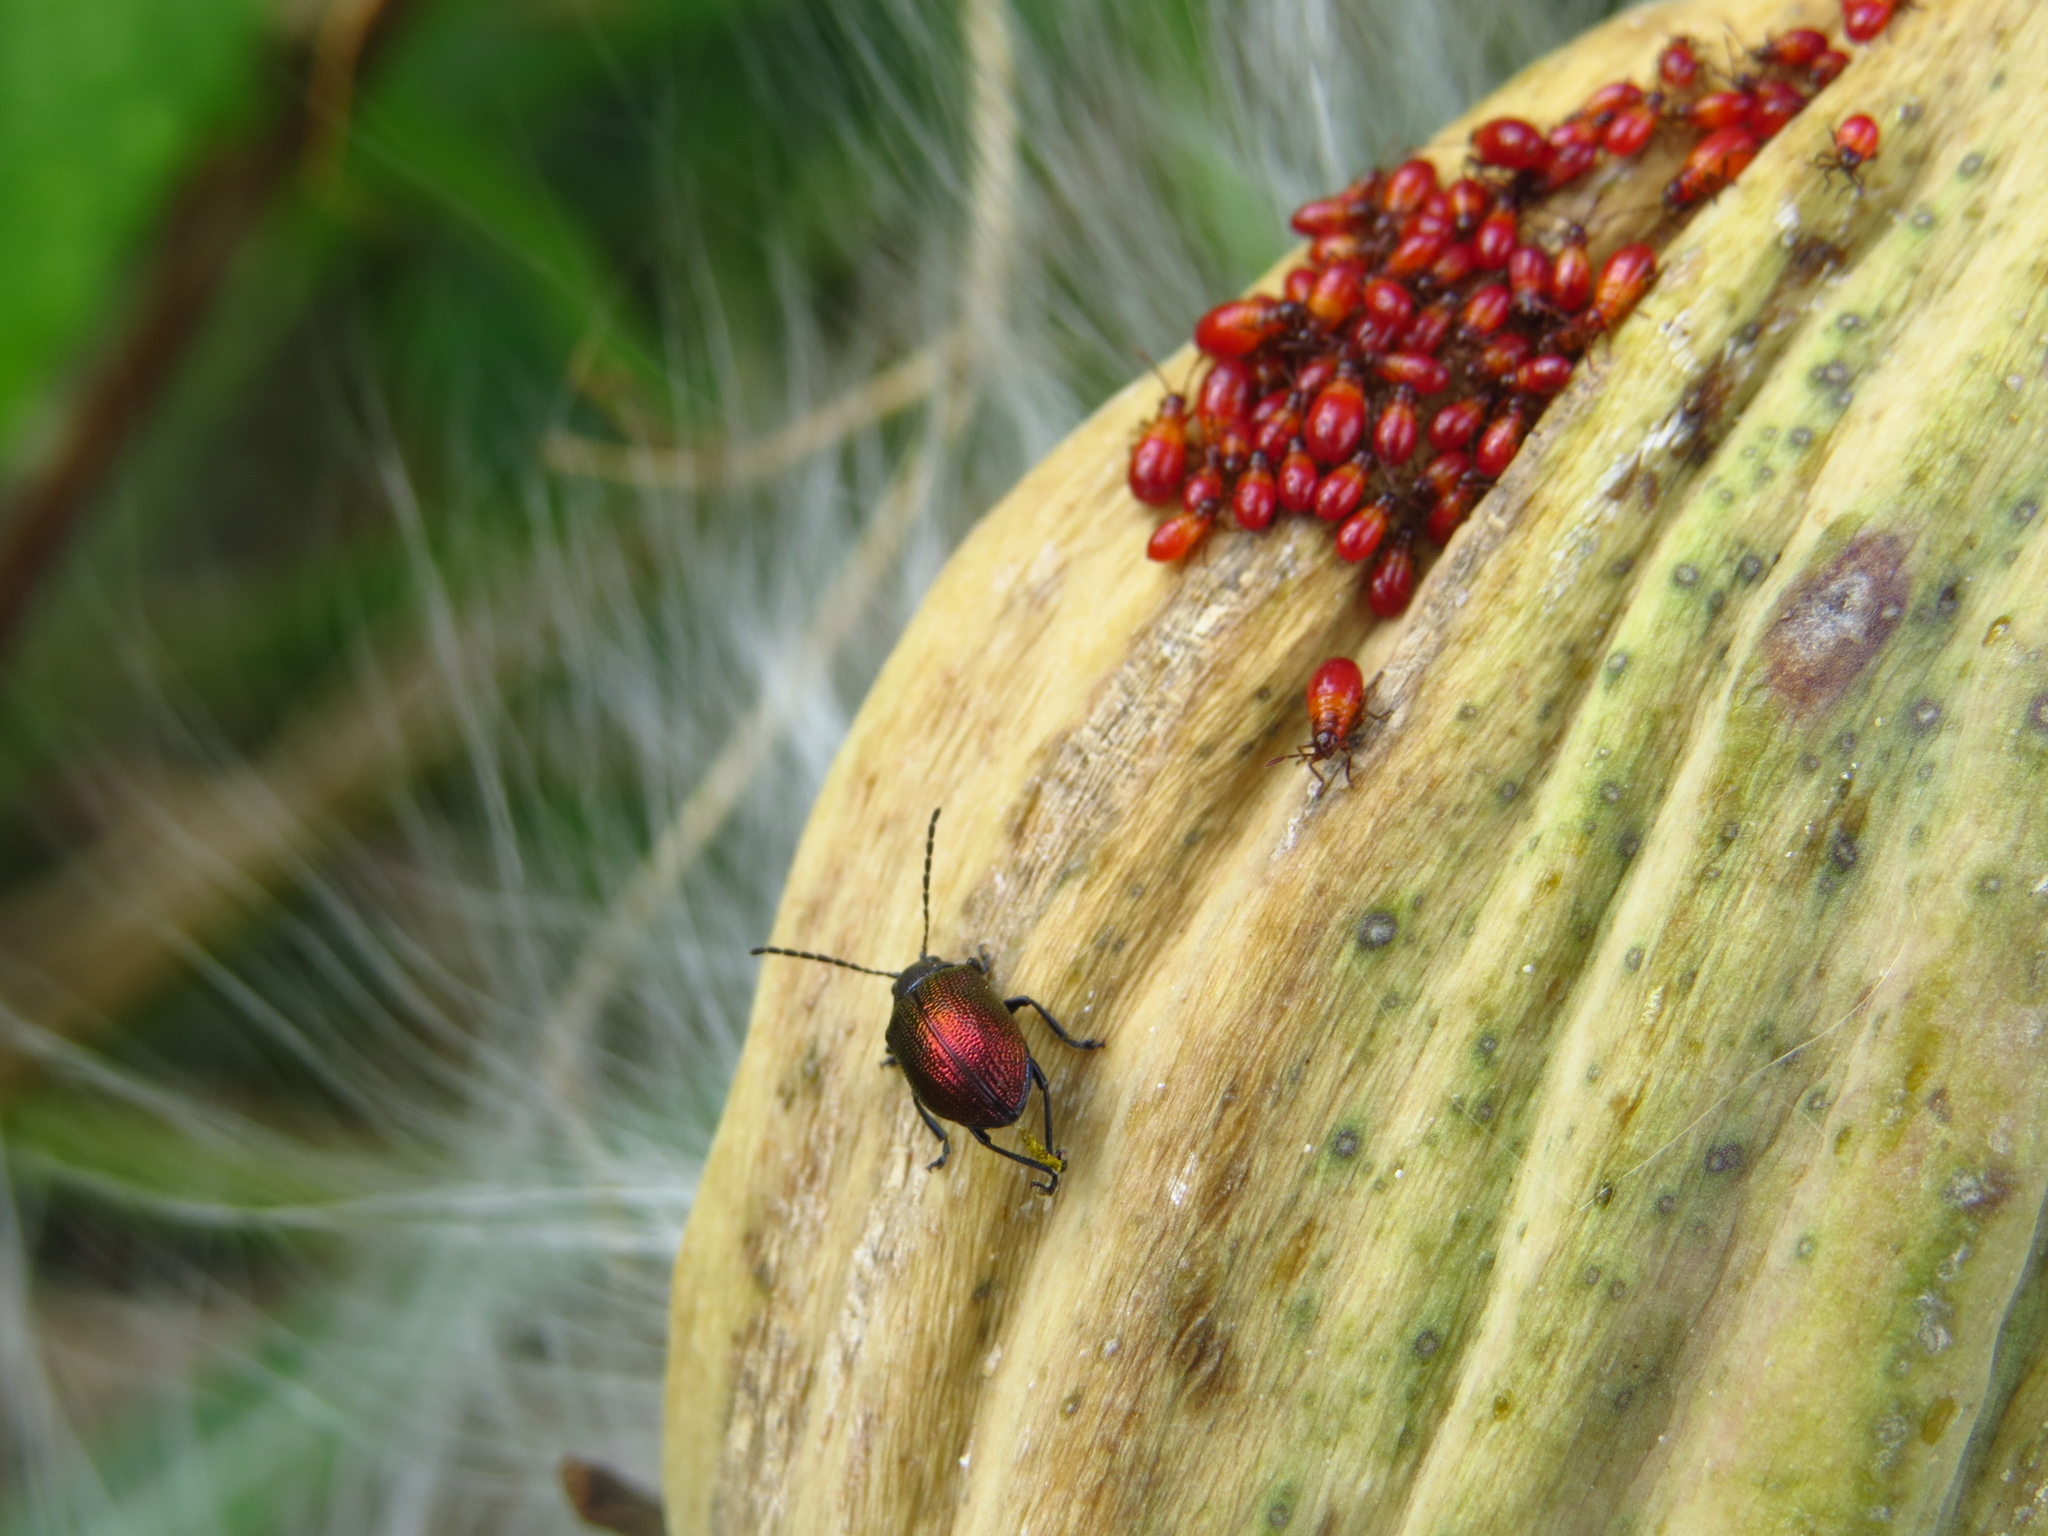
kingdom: Animalia
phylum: Arthropoda
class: Insecta
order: Coleoptera
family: Chrysomelidae
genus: Freudeita
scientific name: Freudeita
